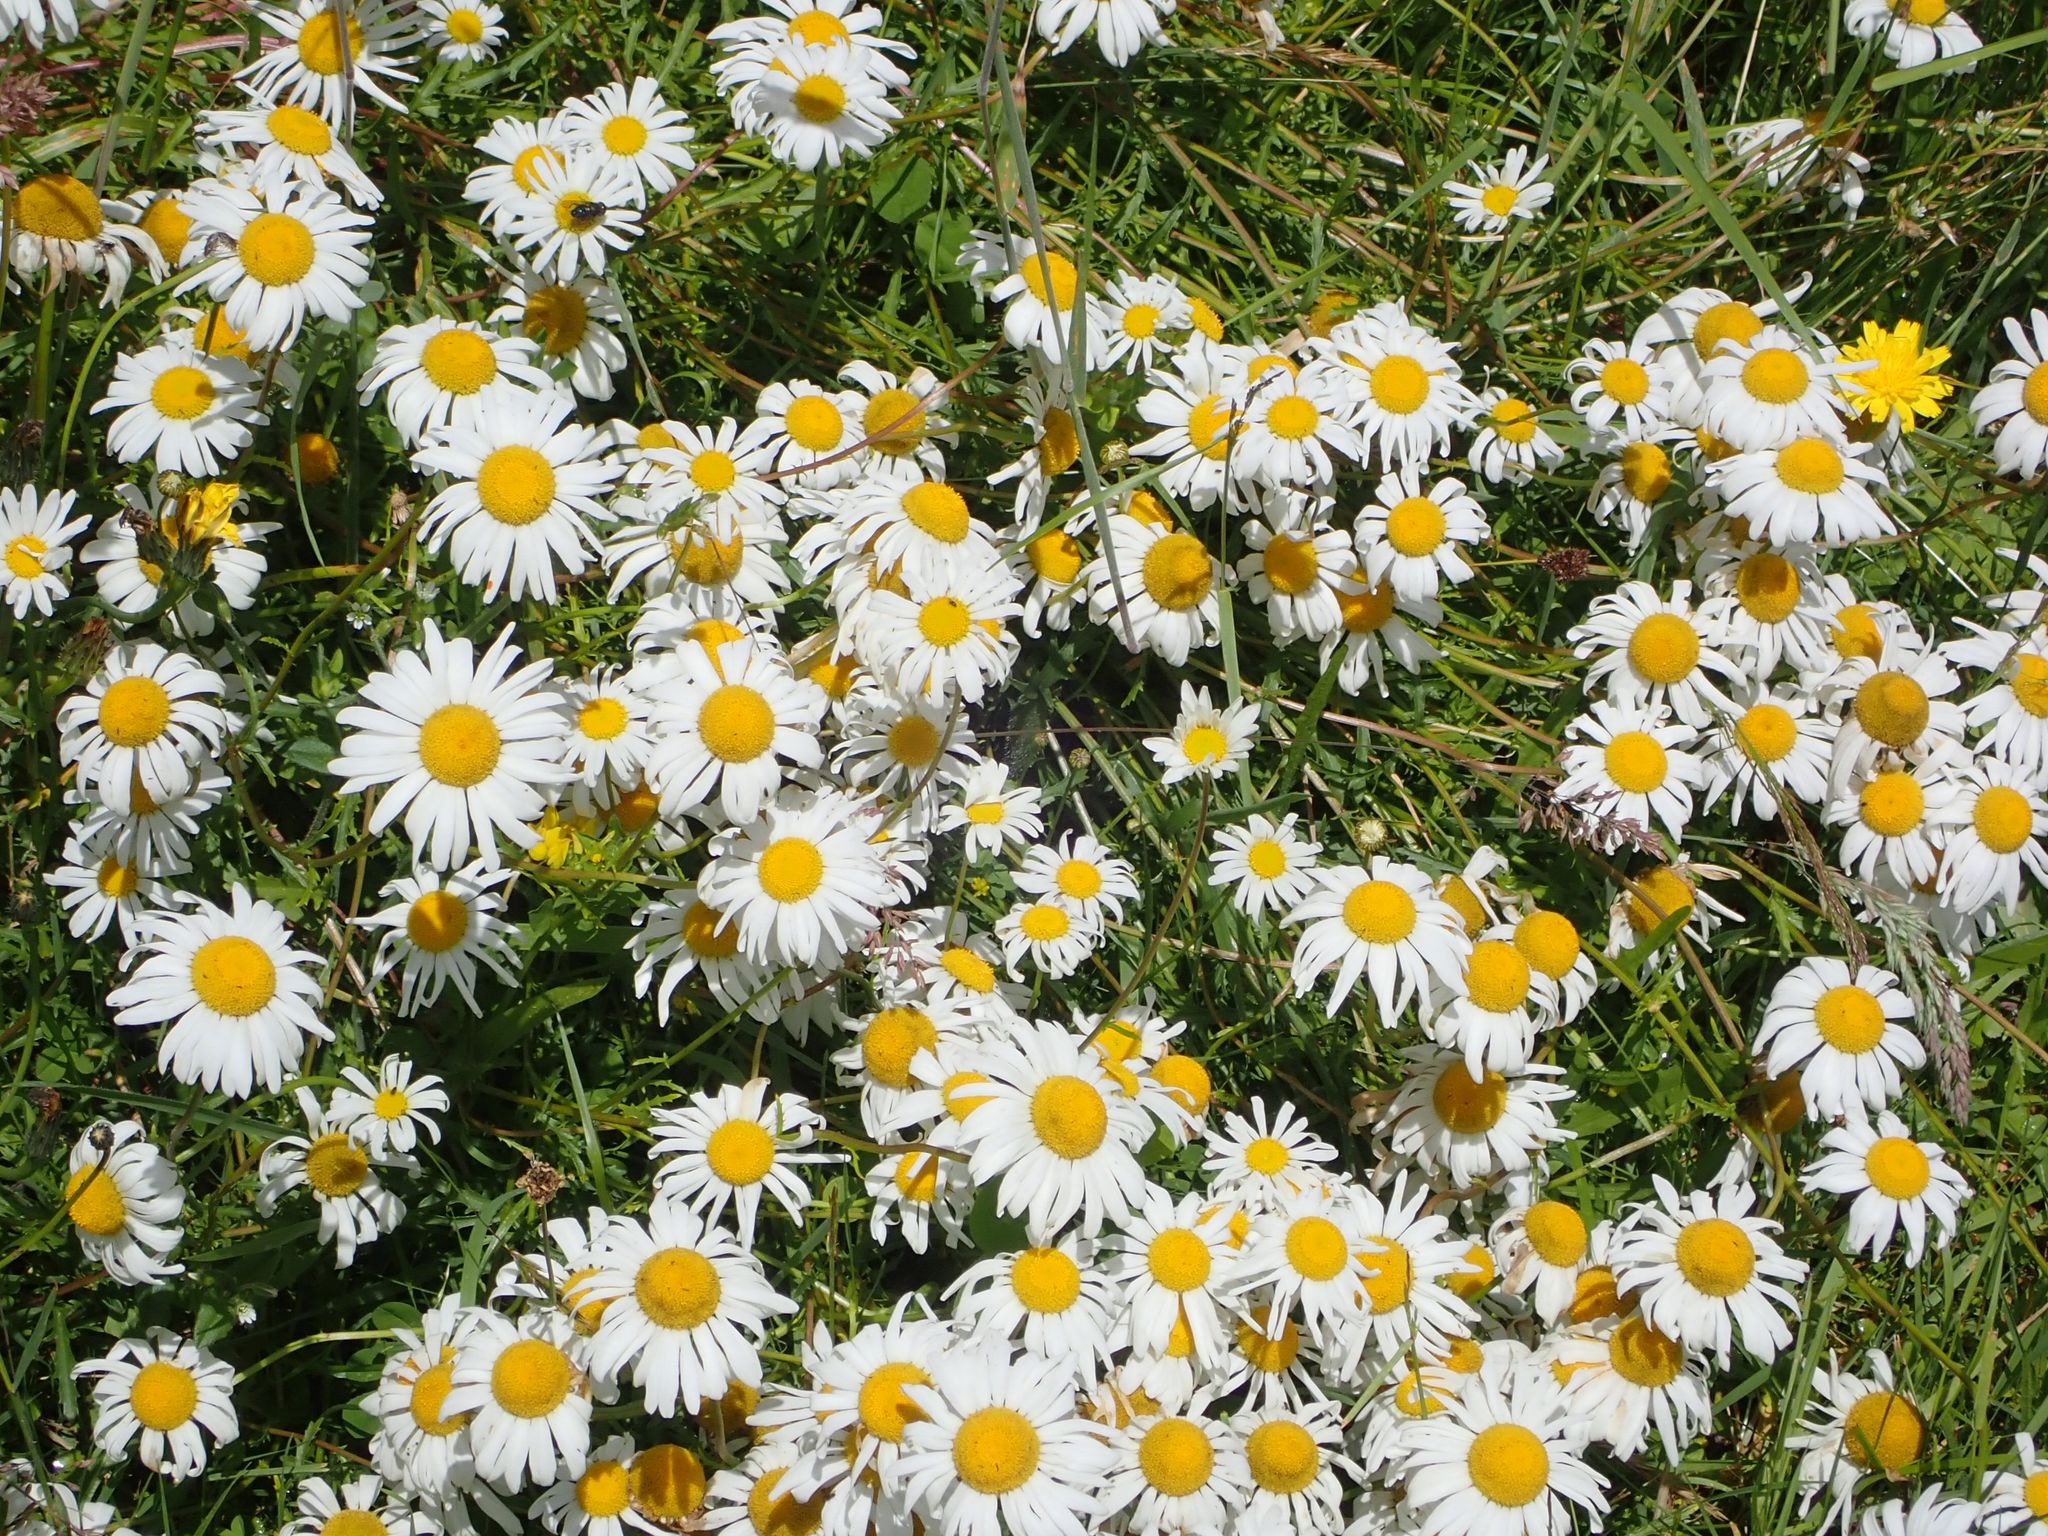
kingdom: Plantae
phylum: Tracheophyta
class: Magnoliopsida
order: Asterales
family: Asteraceae
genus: Leucanthemum
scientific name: Leucanthemum vulgare
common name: Oxeye daisy
